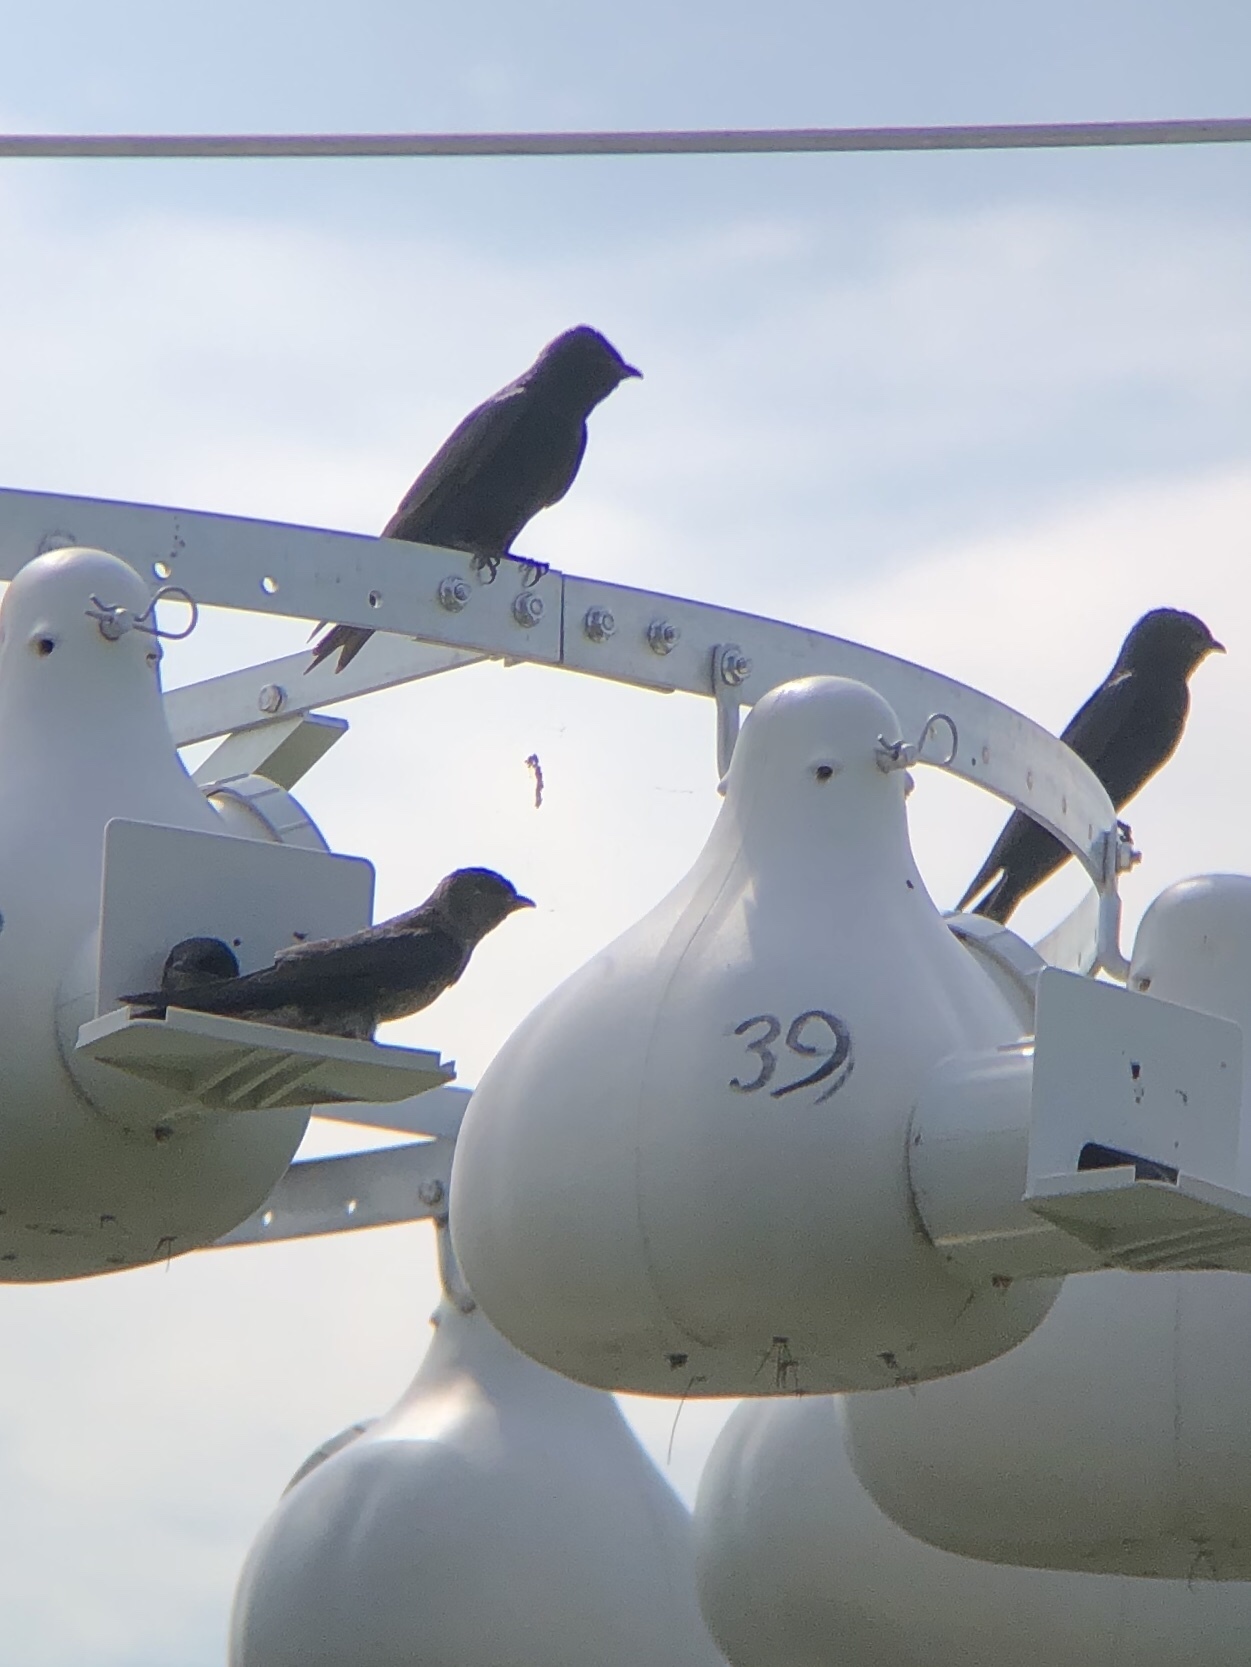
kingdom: Animalia
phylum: Chordata
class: Aves
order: Passeriformes
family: Hirundinidae
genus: Progne
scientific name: Progne subis
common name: Purple martin
